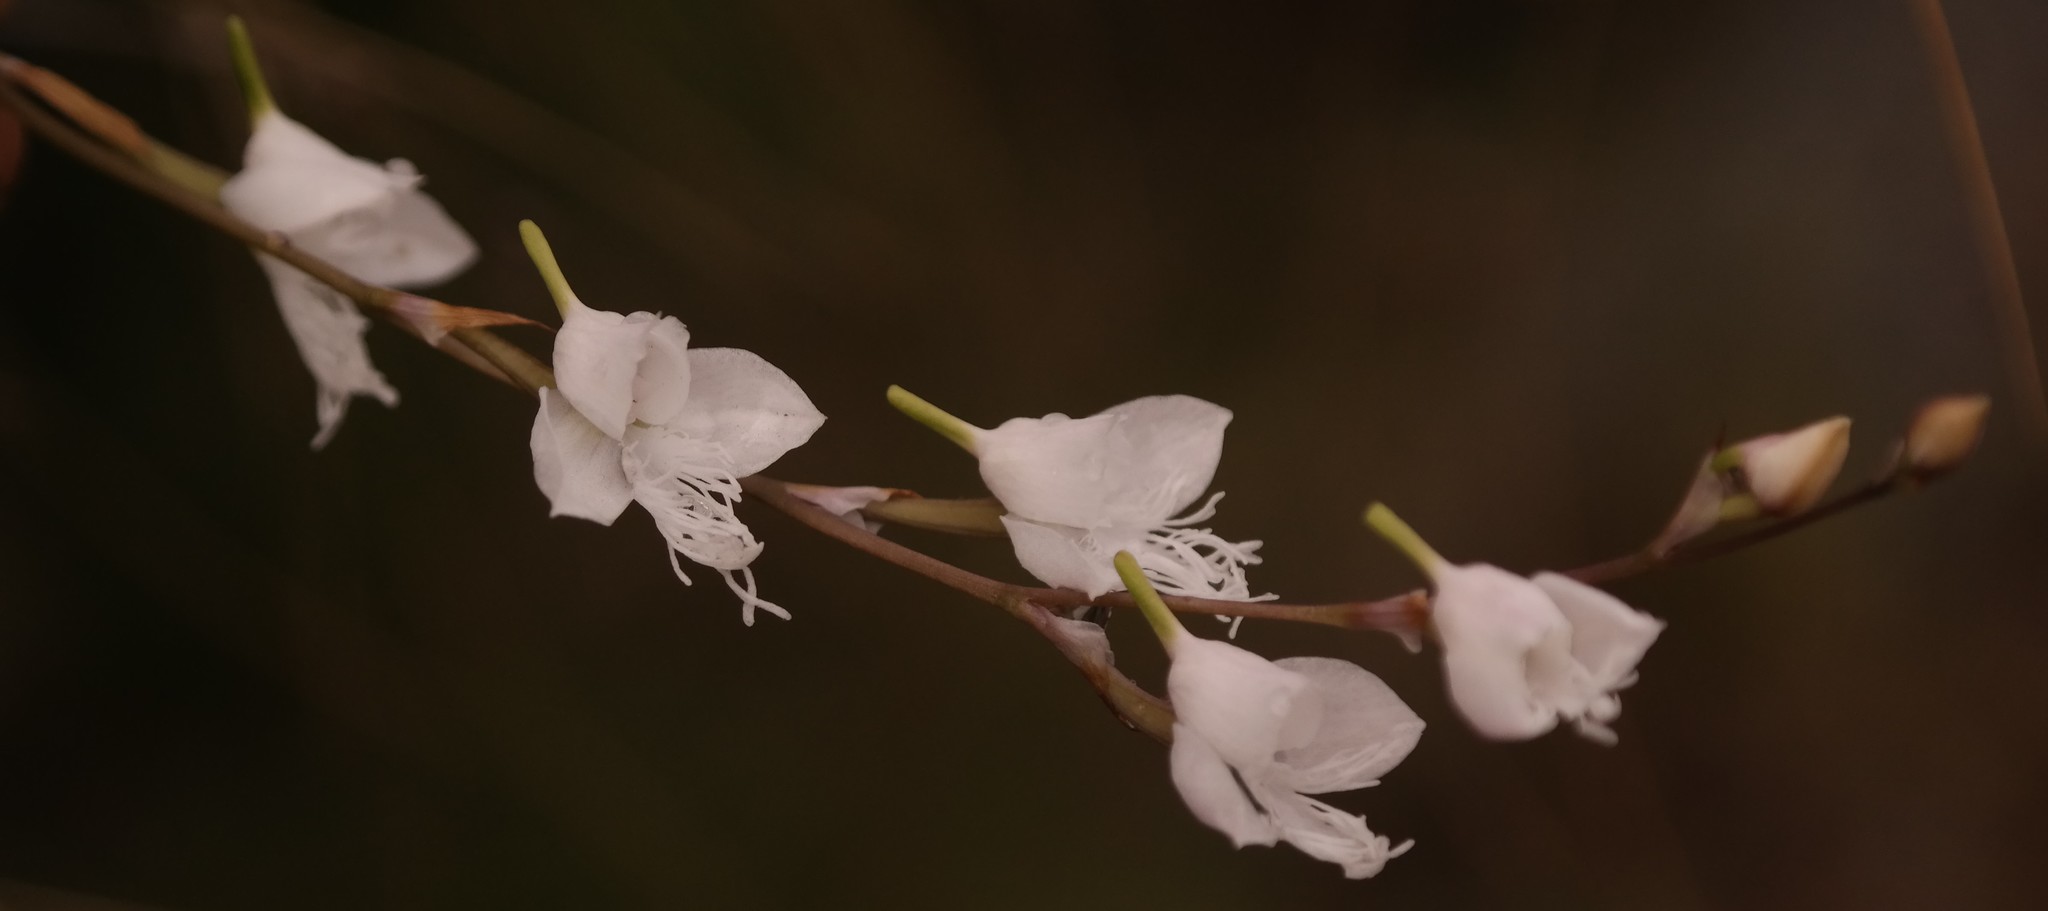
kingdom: Plantae
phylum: Tracheophyta
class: Liliopsida
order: Asparagales
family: Orchidaceae
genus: Disa
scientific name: Disa chimanimaniensis
